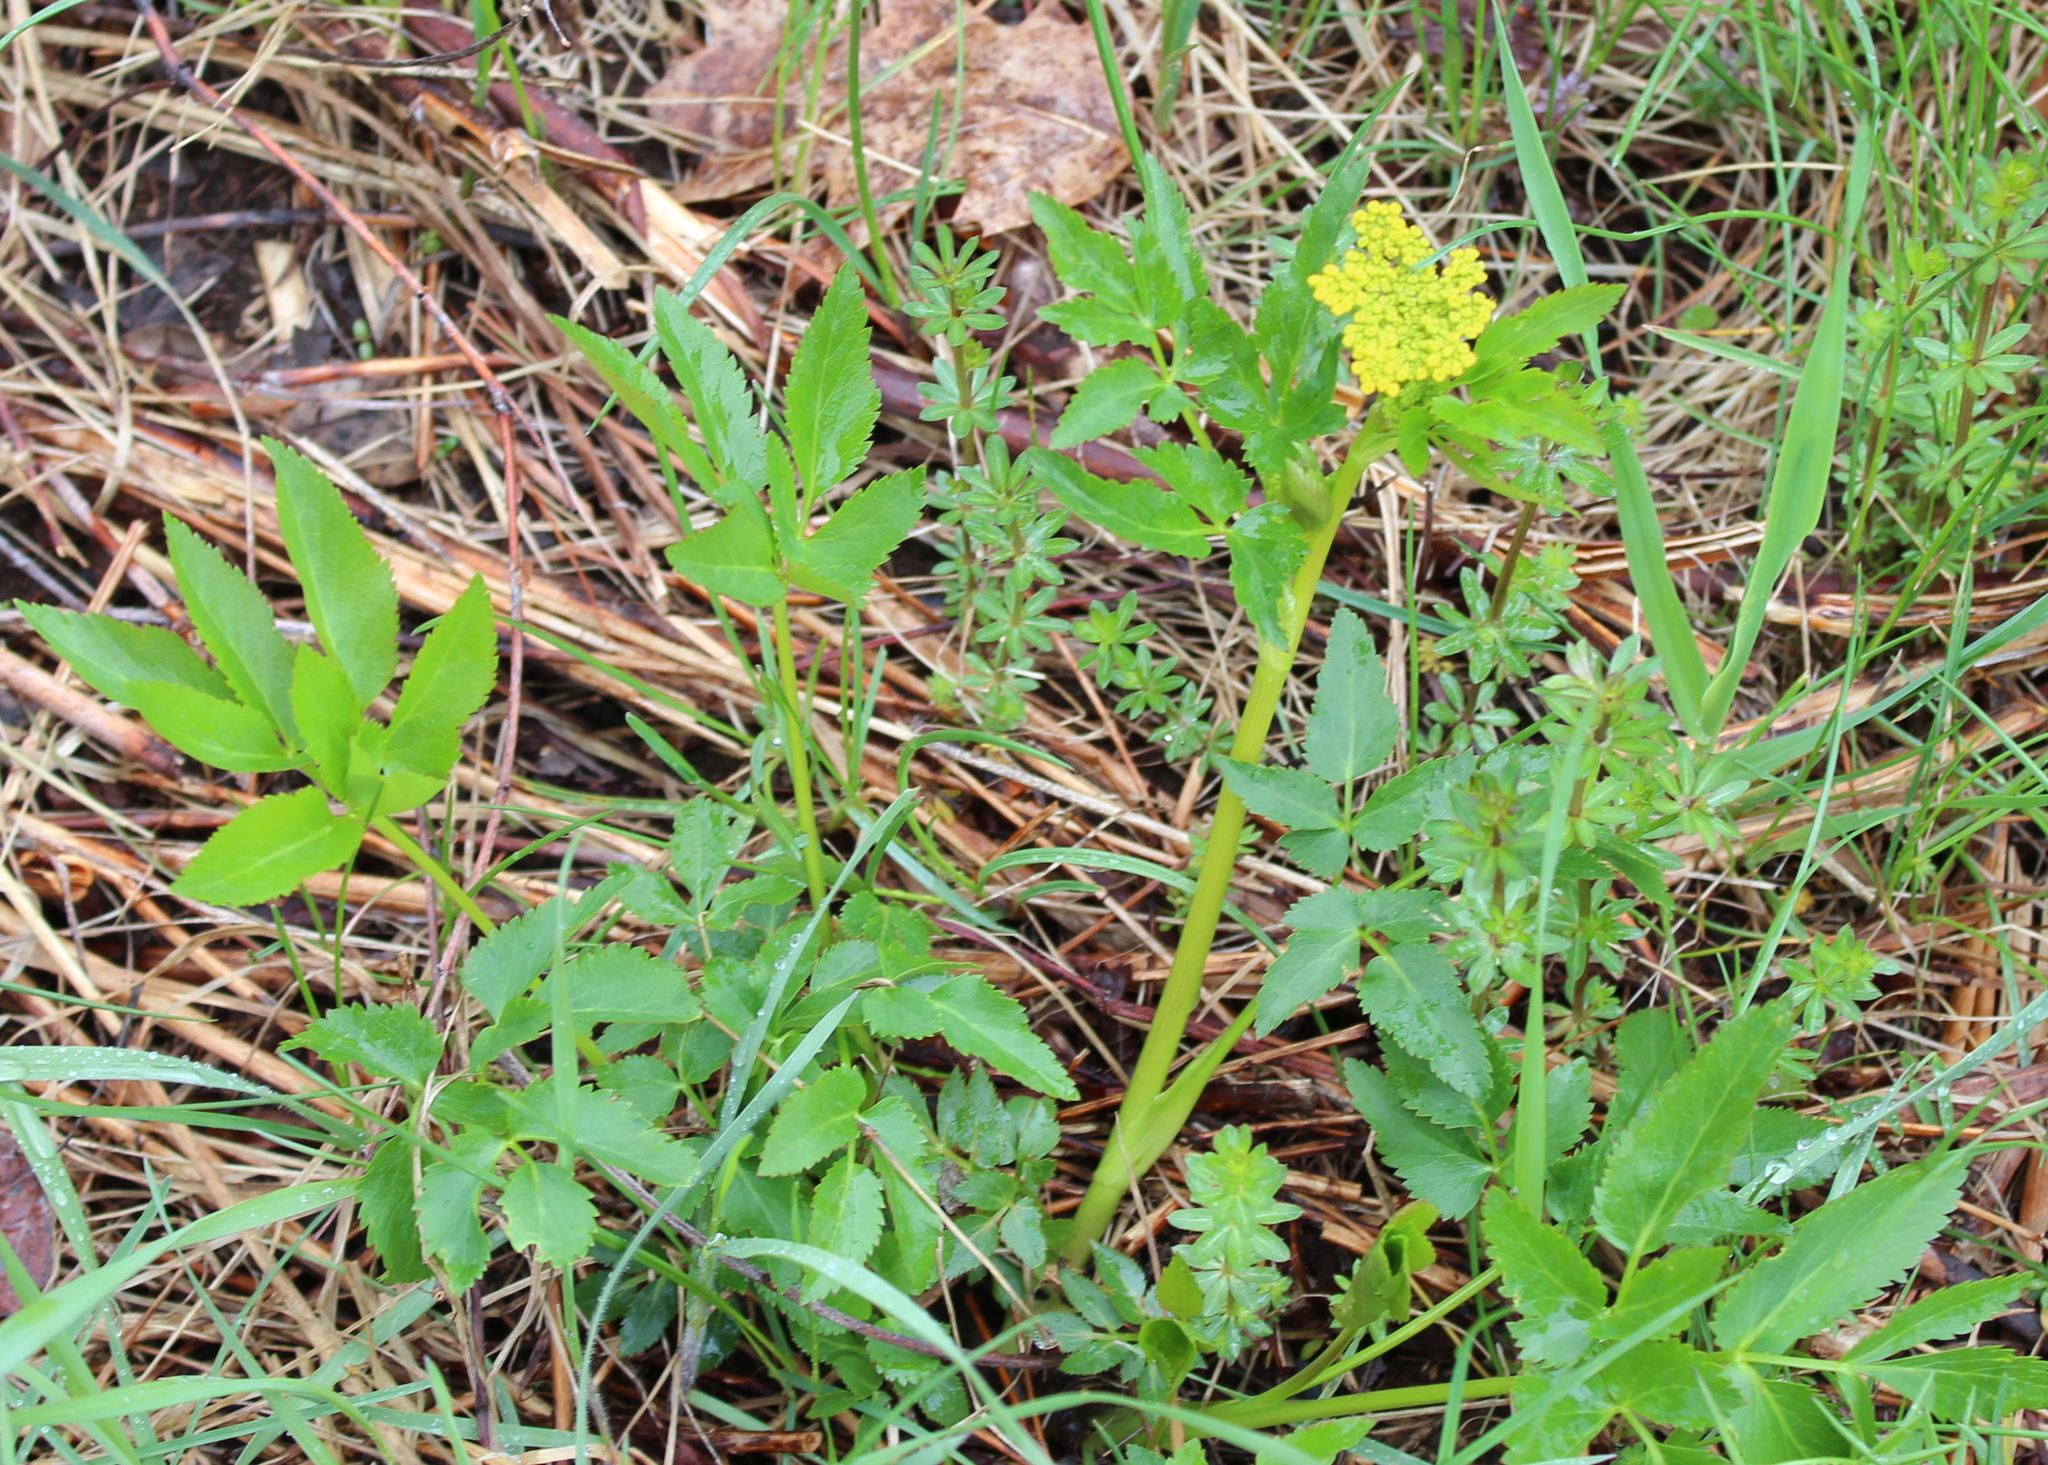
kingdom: Plantae
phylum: Tracheophyta
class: Magnoliopsida
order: Apiales
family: Apiaceae
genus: Zizia
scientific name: Zizia aurea
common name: Golden alexanders
